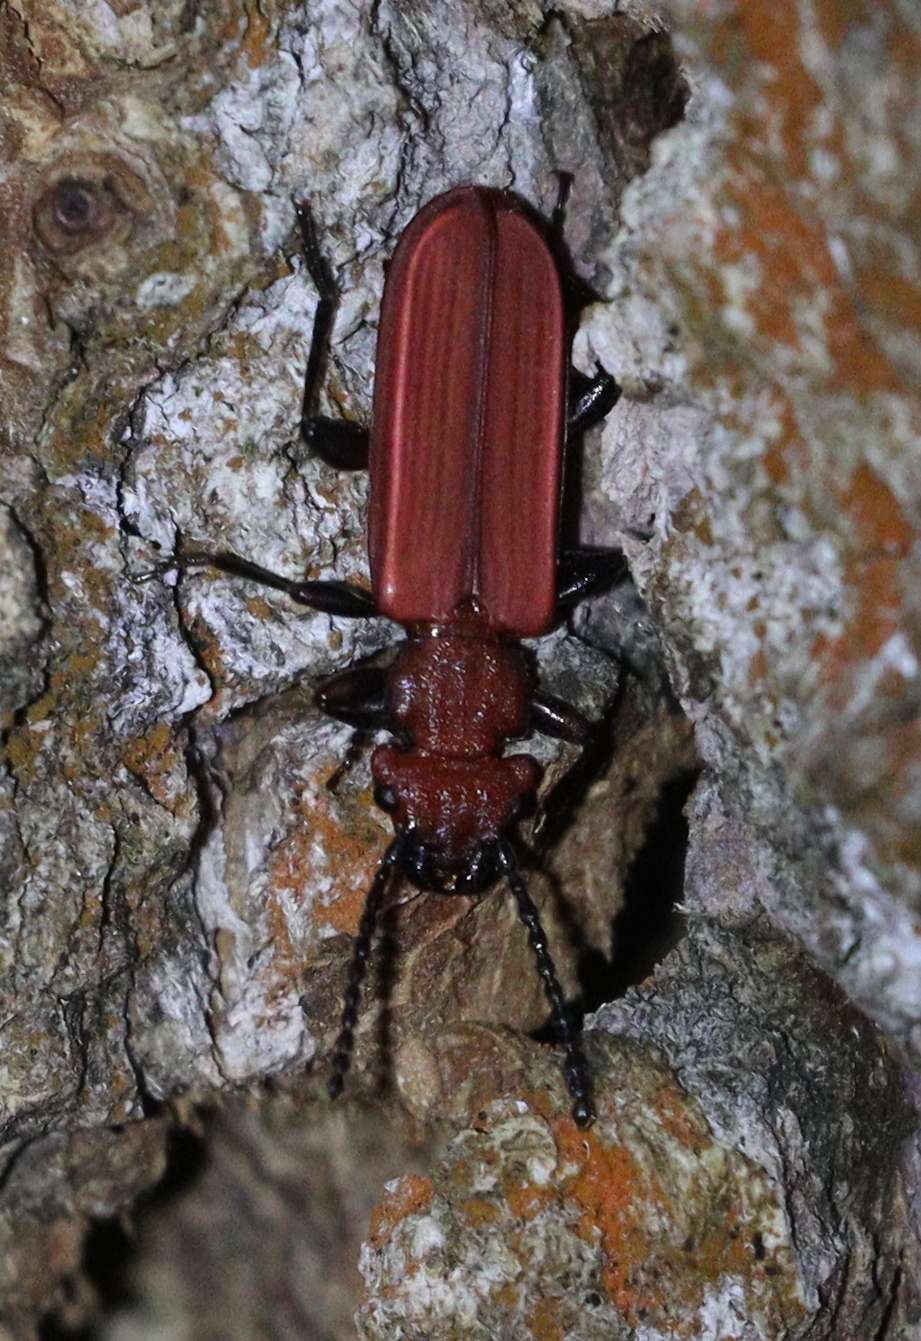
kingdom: Animalia
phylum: Arthropoda
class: Insecta
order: Coleoptera
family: Cucujidae
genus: Cucujus
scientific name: Cucujus cinnaberinus
